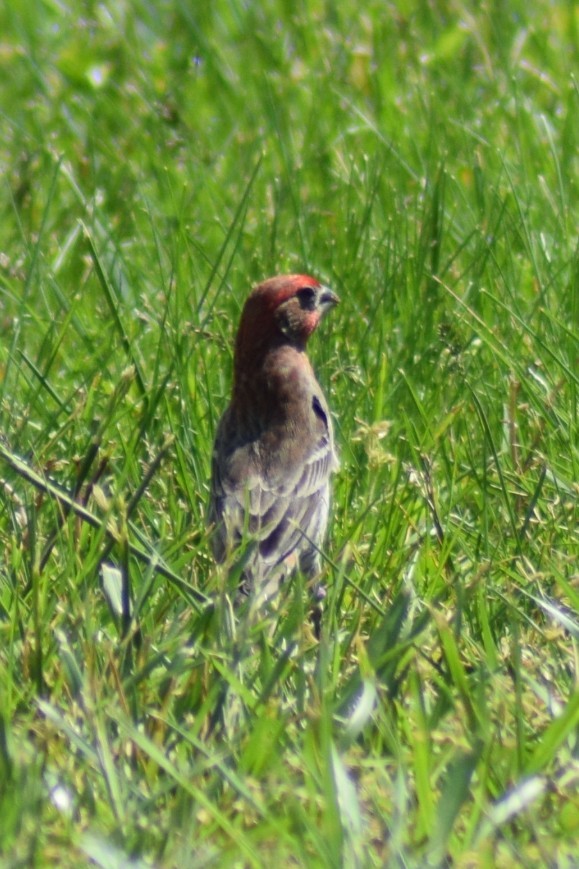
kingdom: Animalia
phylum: Chordata
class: Aves
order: Passeriformes
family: Fringillidae
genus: Haemorhous
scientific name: Haemorhous mexicanus
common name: House finch
